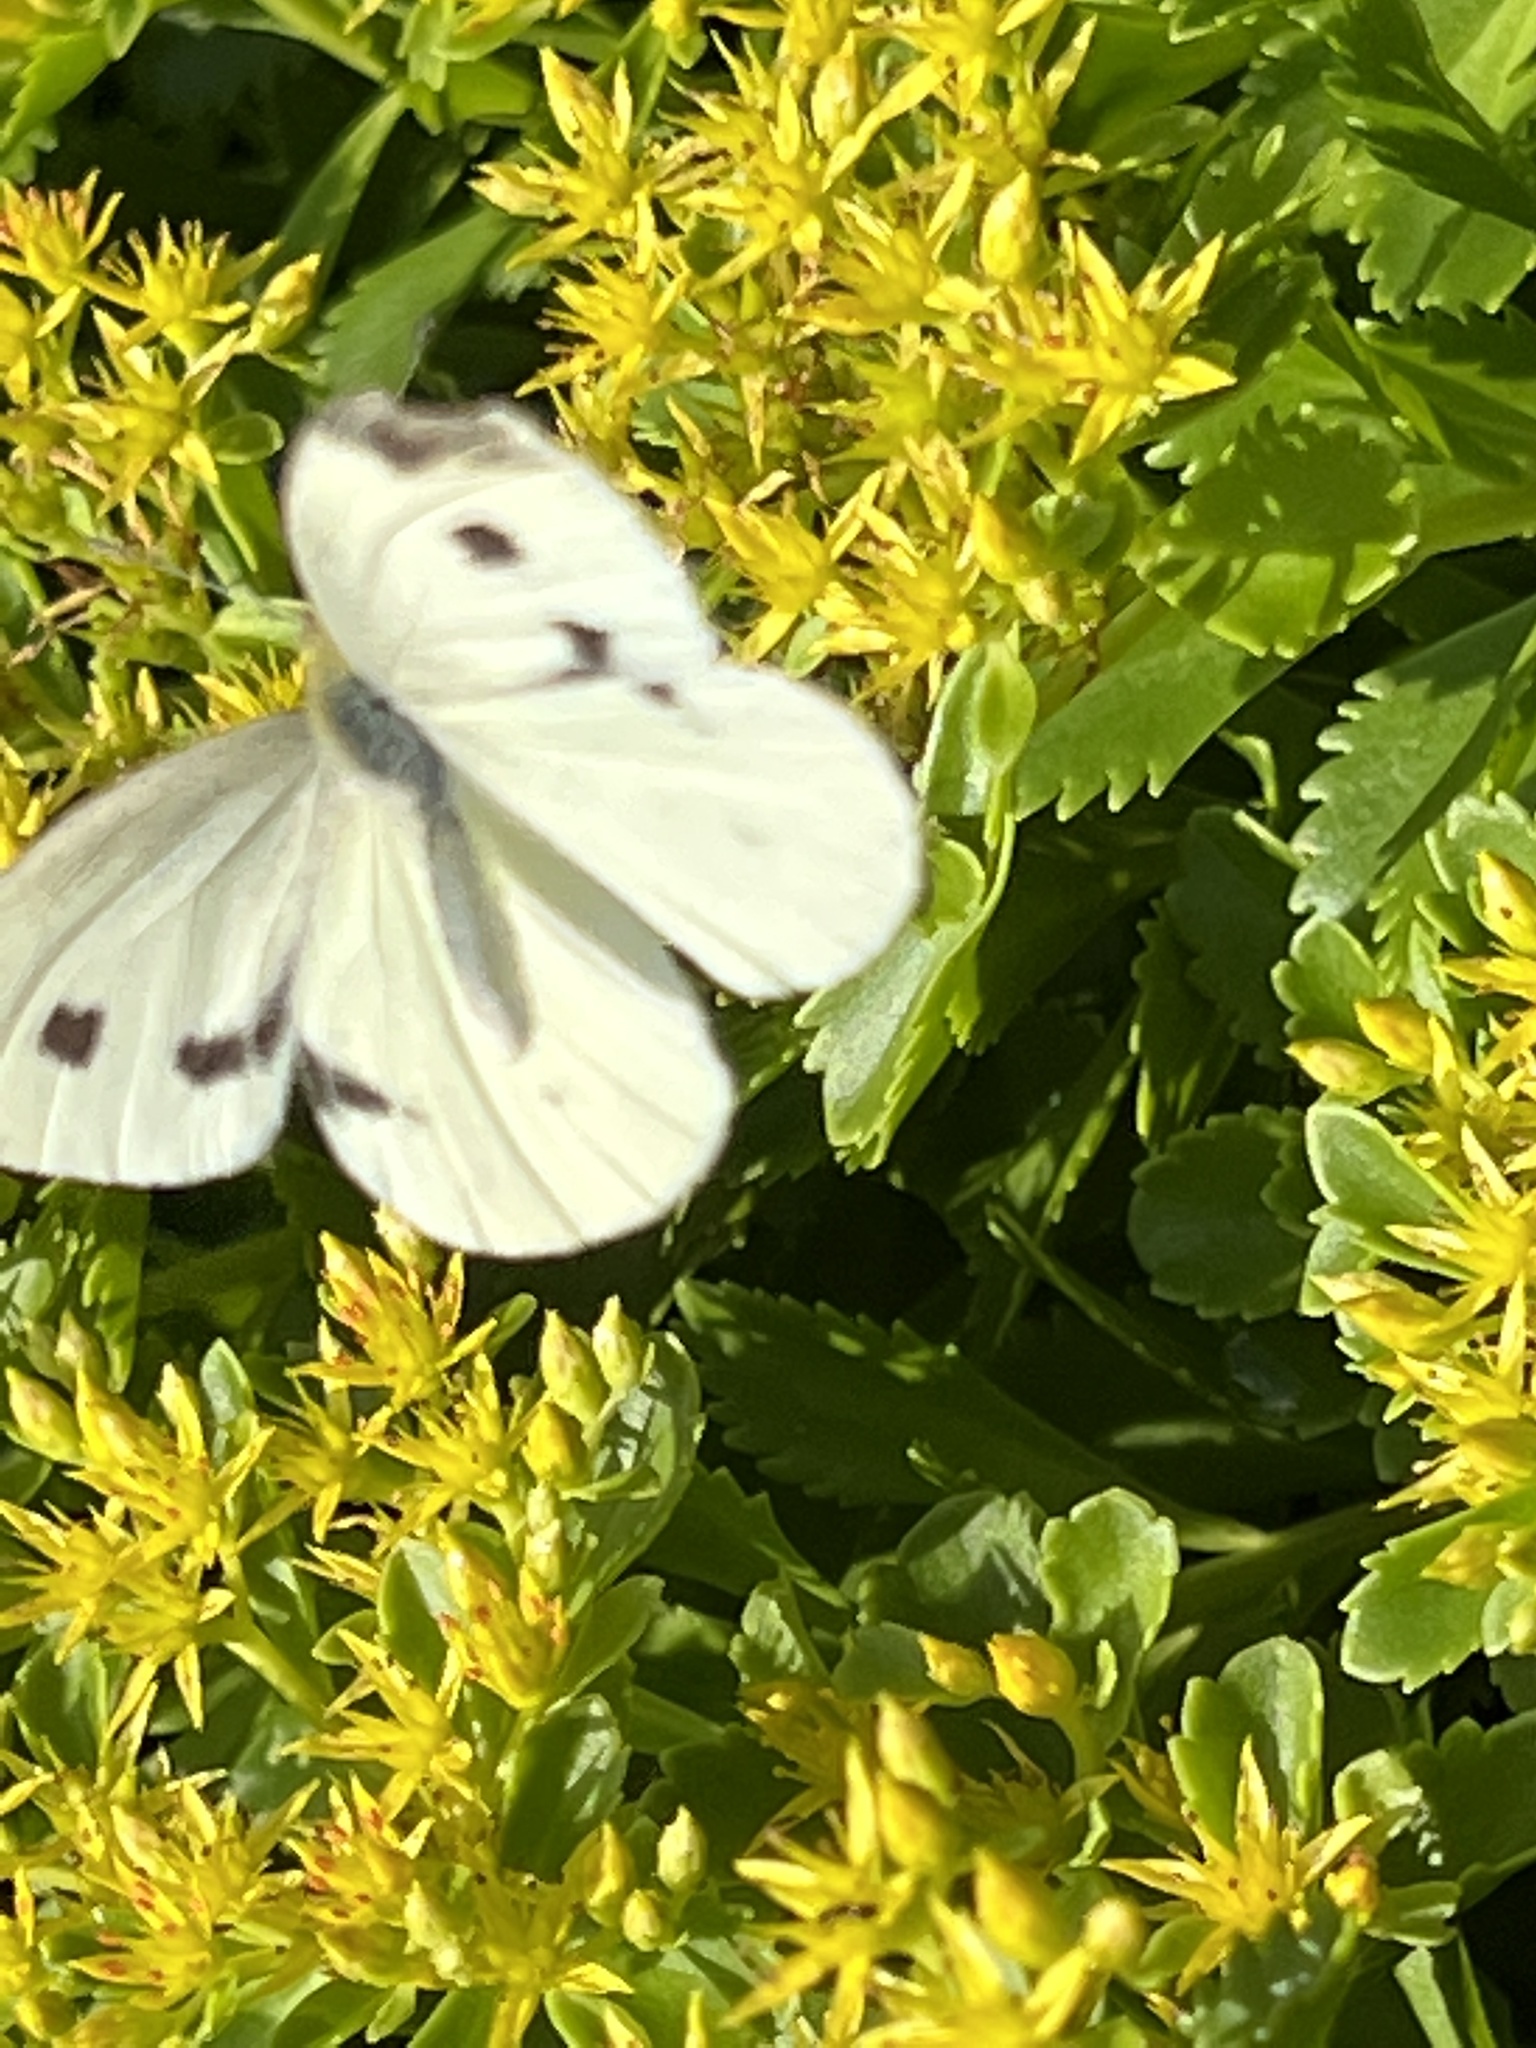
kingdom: Animalia
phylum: Arthropoda
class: Insecta
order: Lepidoptera
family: Pieridae
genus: Pieris
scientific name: Pieris rapae
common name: Small white
